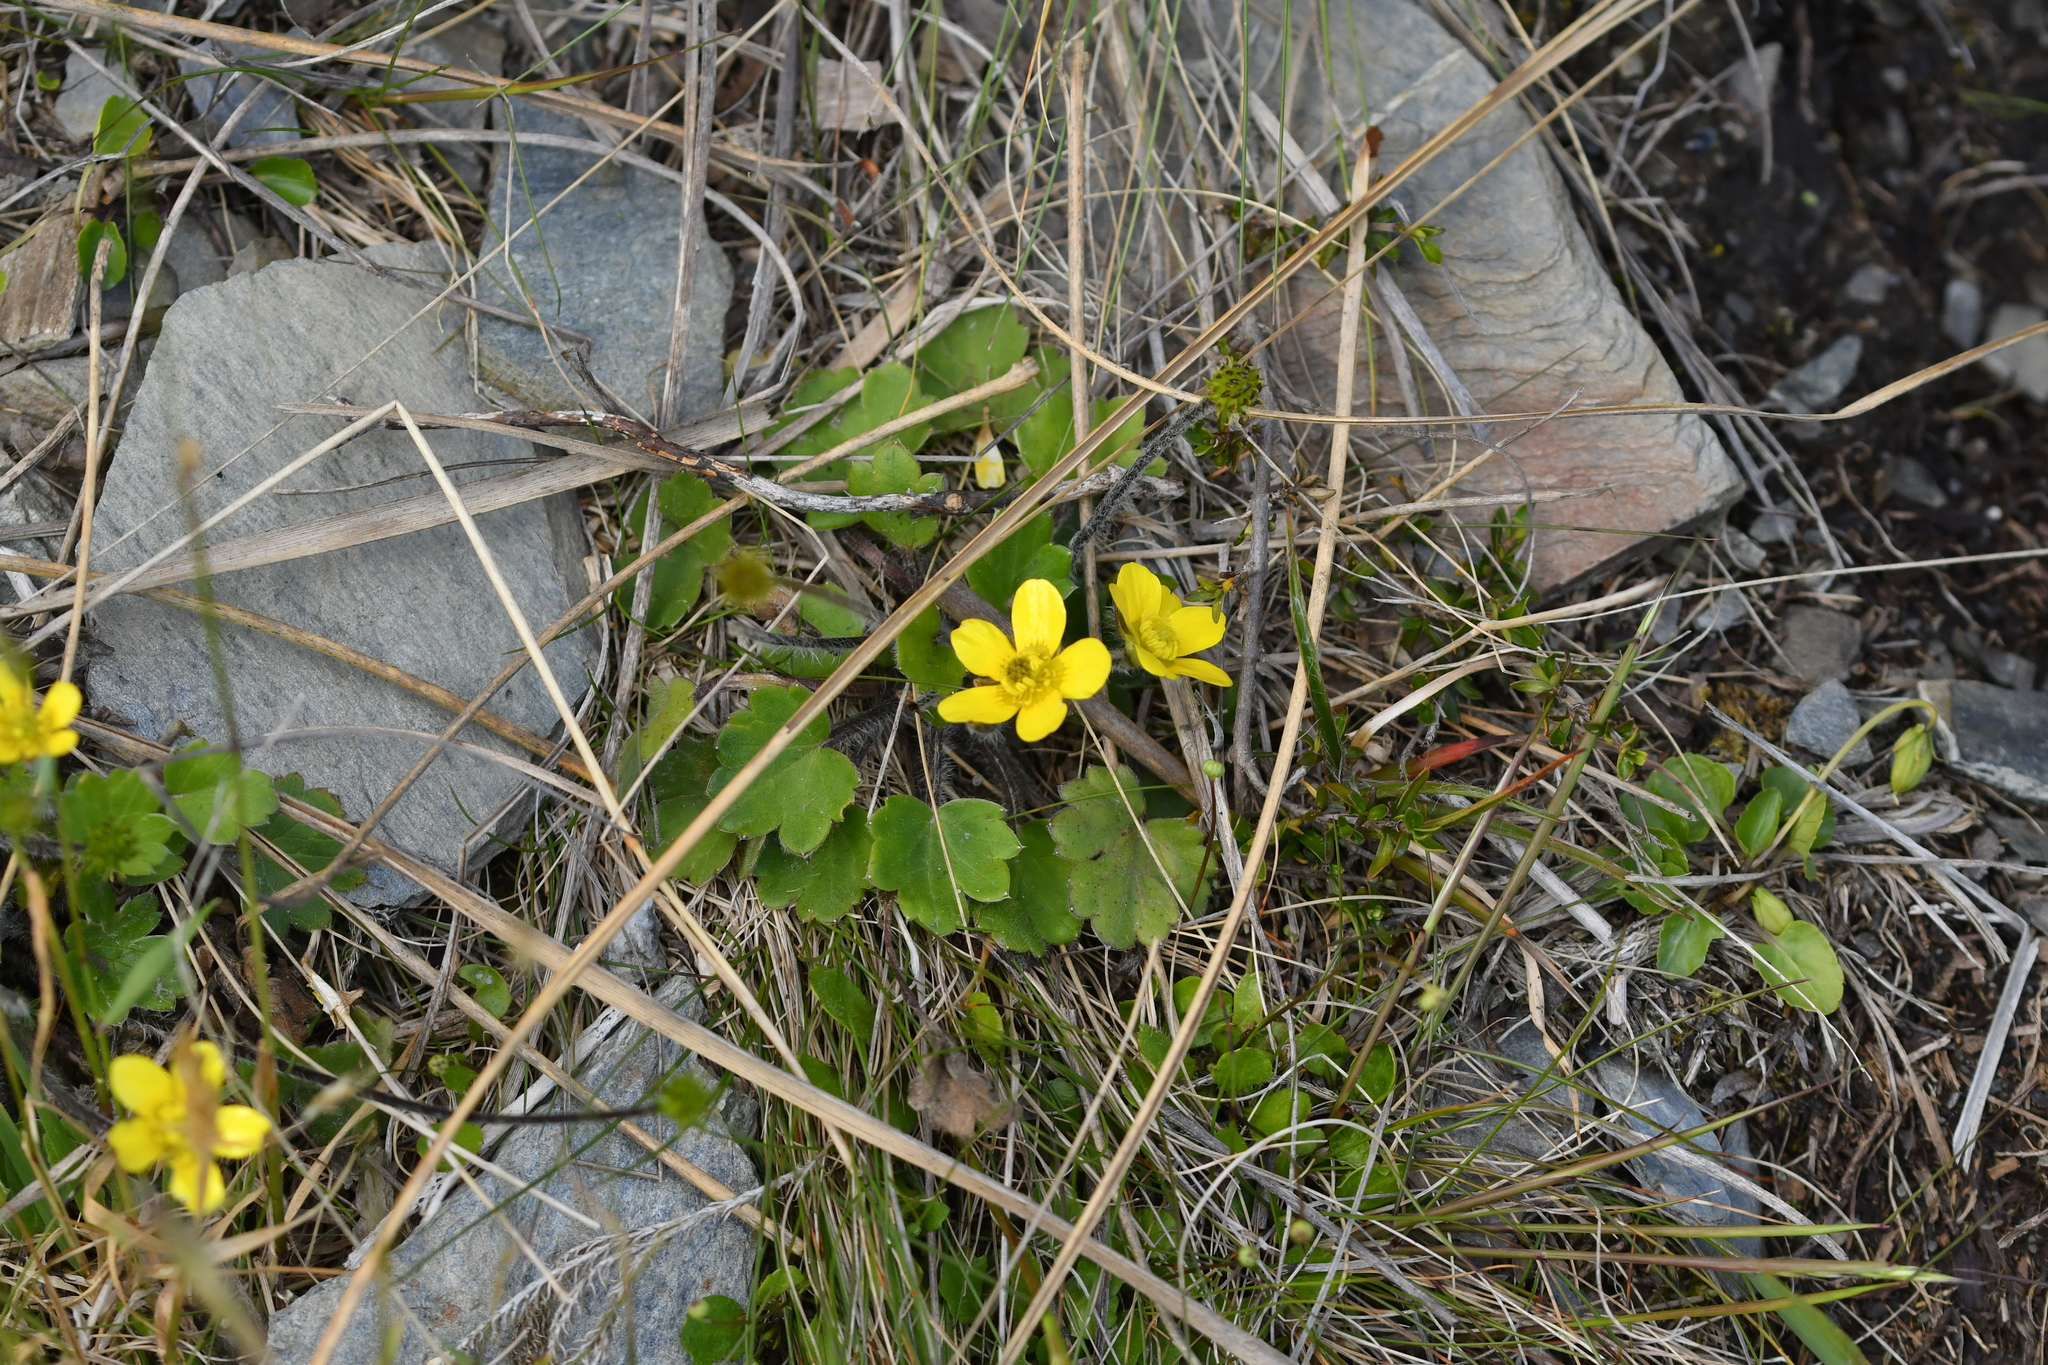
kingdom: Plantae
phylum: Tracheophyta
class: Magnoliopsida
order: Ranunculales
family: Ranunculaceae
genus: Ranunculus
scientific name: Ranunculus multiscapus
